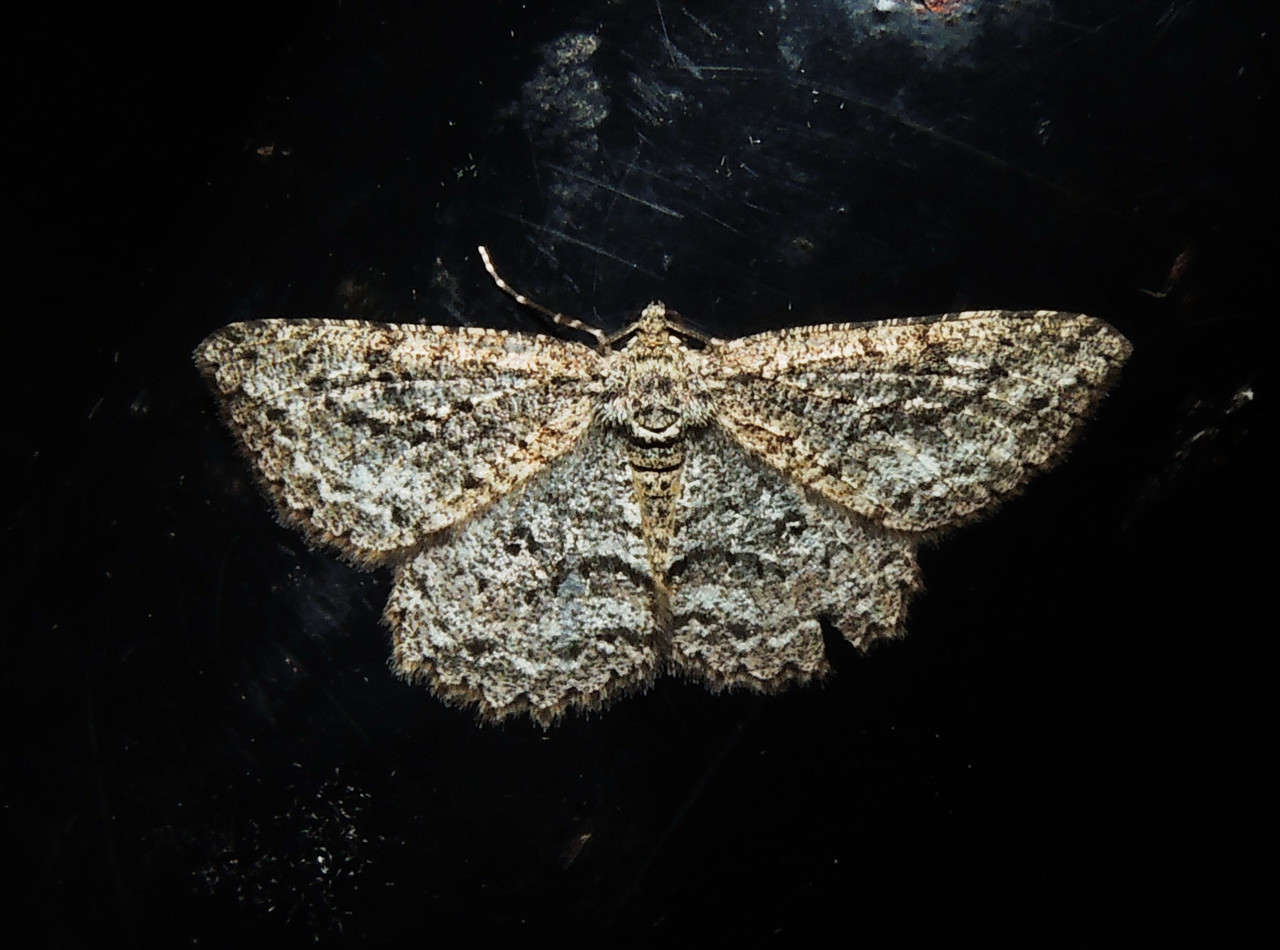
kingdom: Animalia
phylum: Arthropoda
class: Insecta
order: Lepidoptera
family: Geometridae
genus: Ectropis
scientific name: Ectropis fractaria
